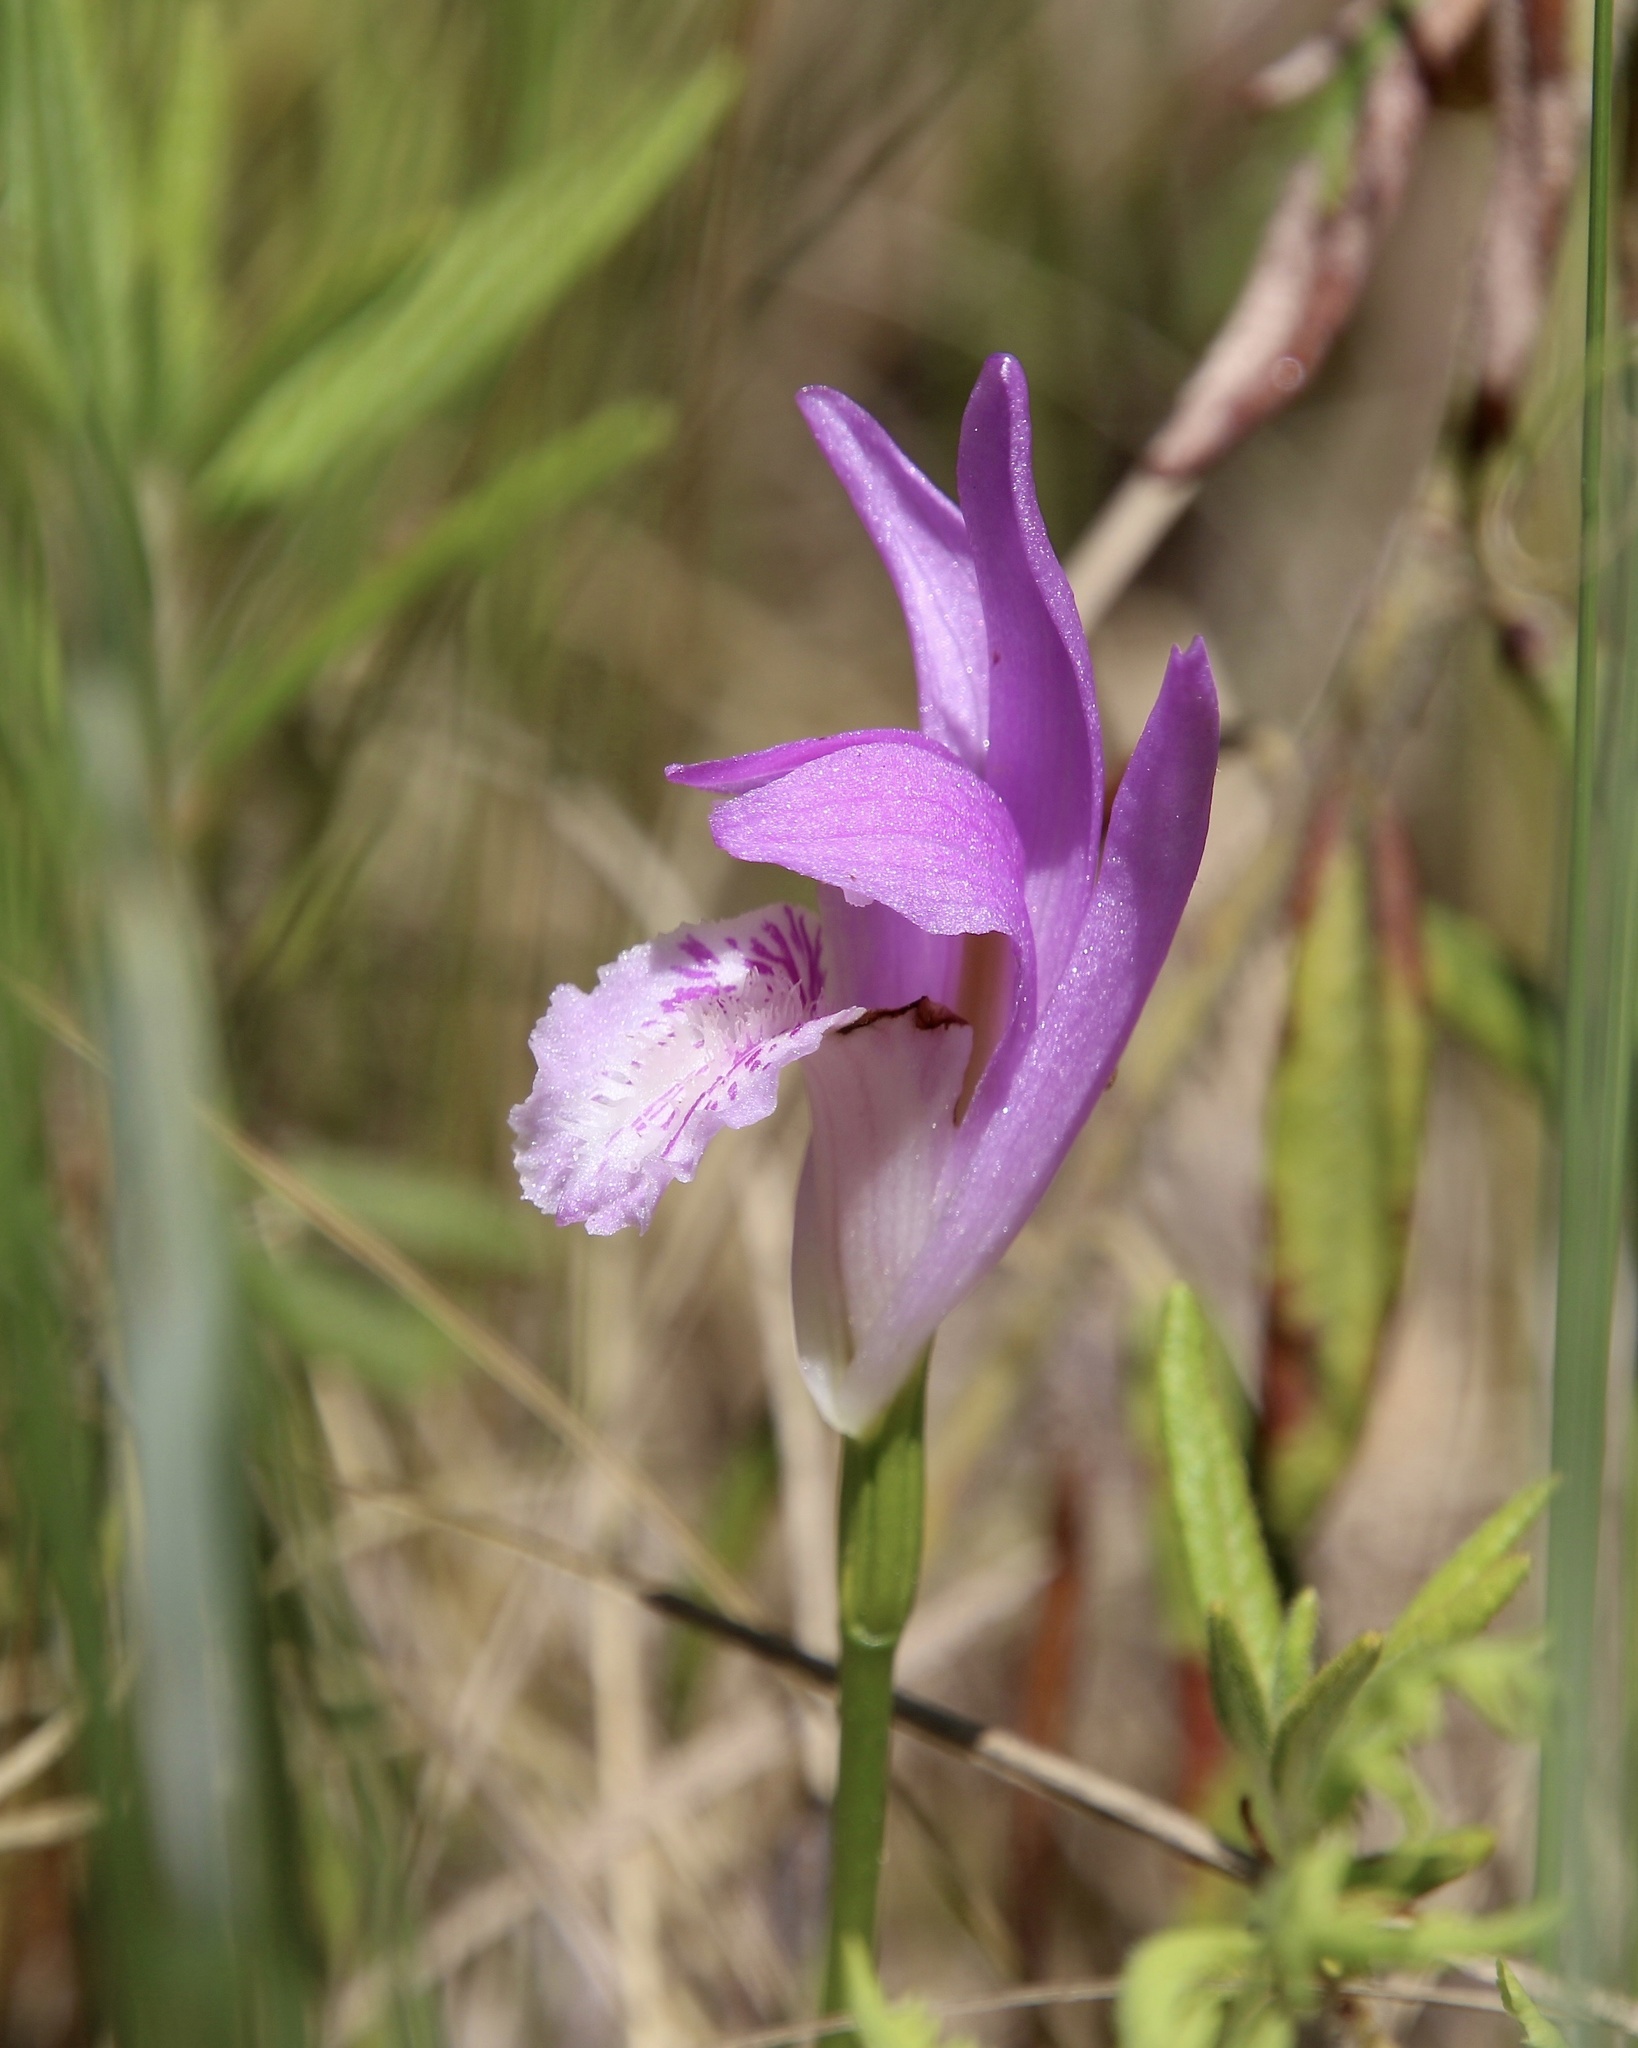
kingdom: Plantae
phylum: Tracheophyta
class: Liliopsida
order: Asparagales
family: Orchidaceae
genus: Arethusa
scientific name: Arethusa bulbosa
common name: Arethusa
